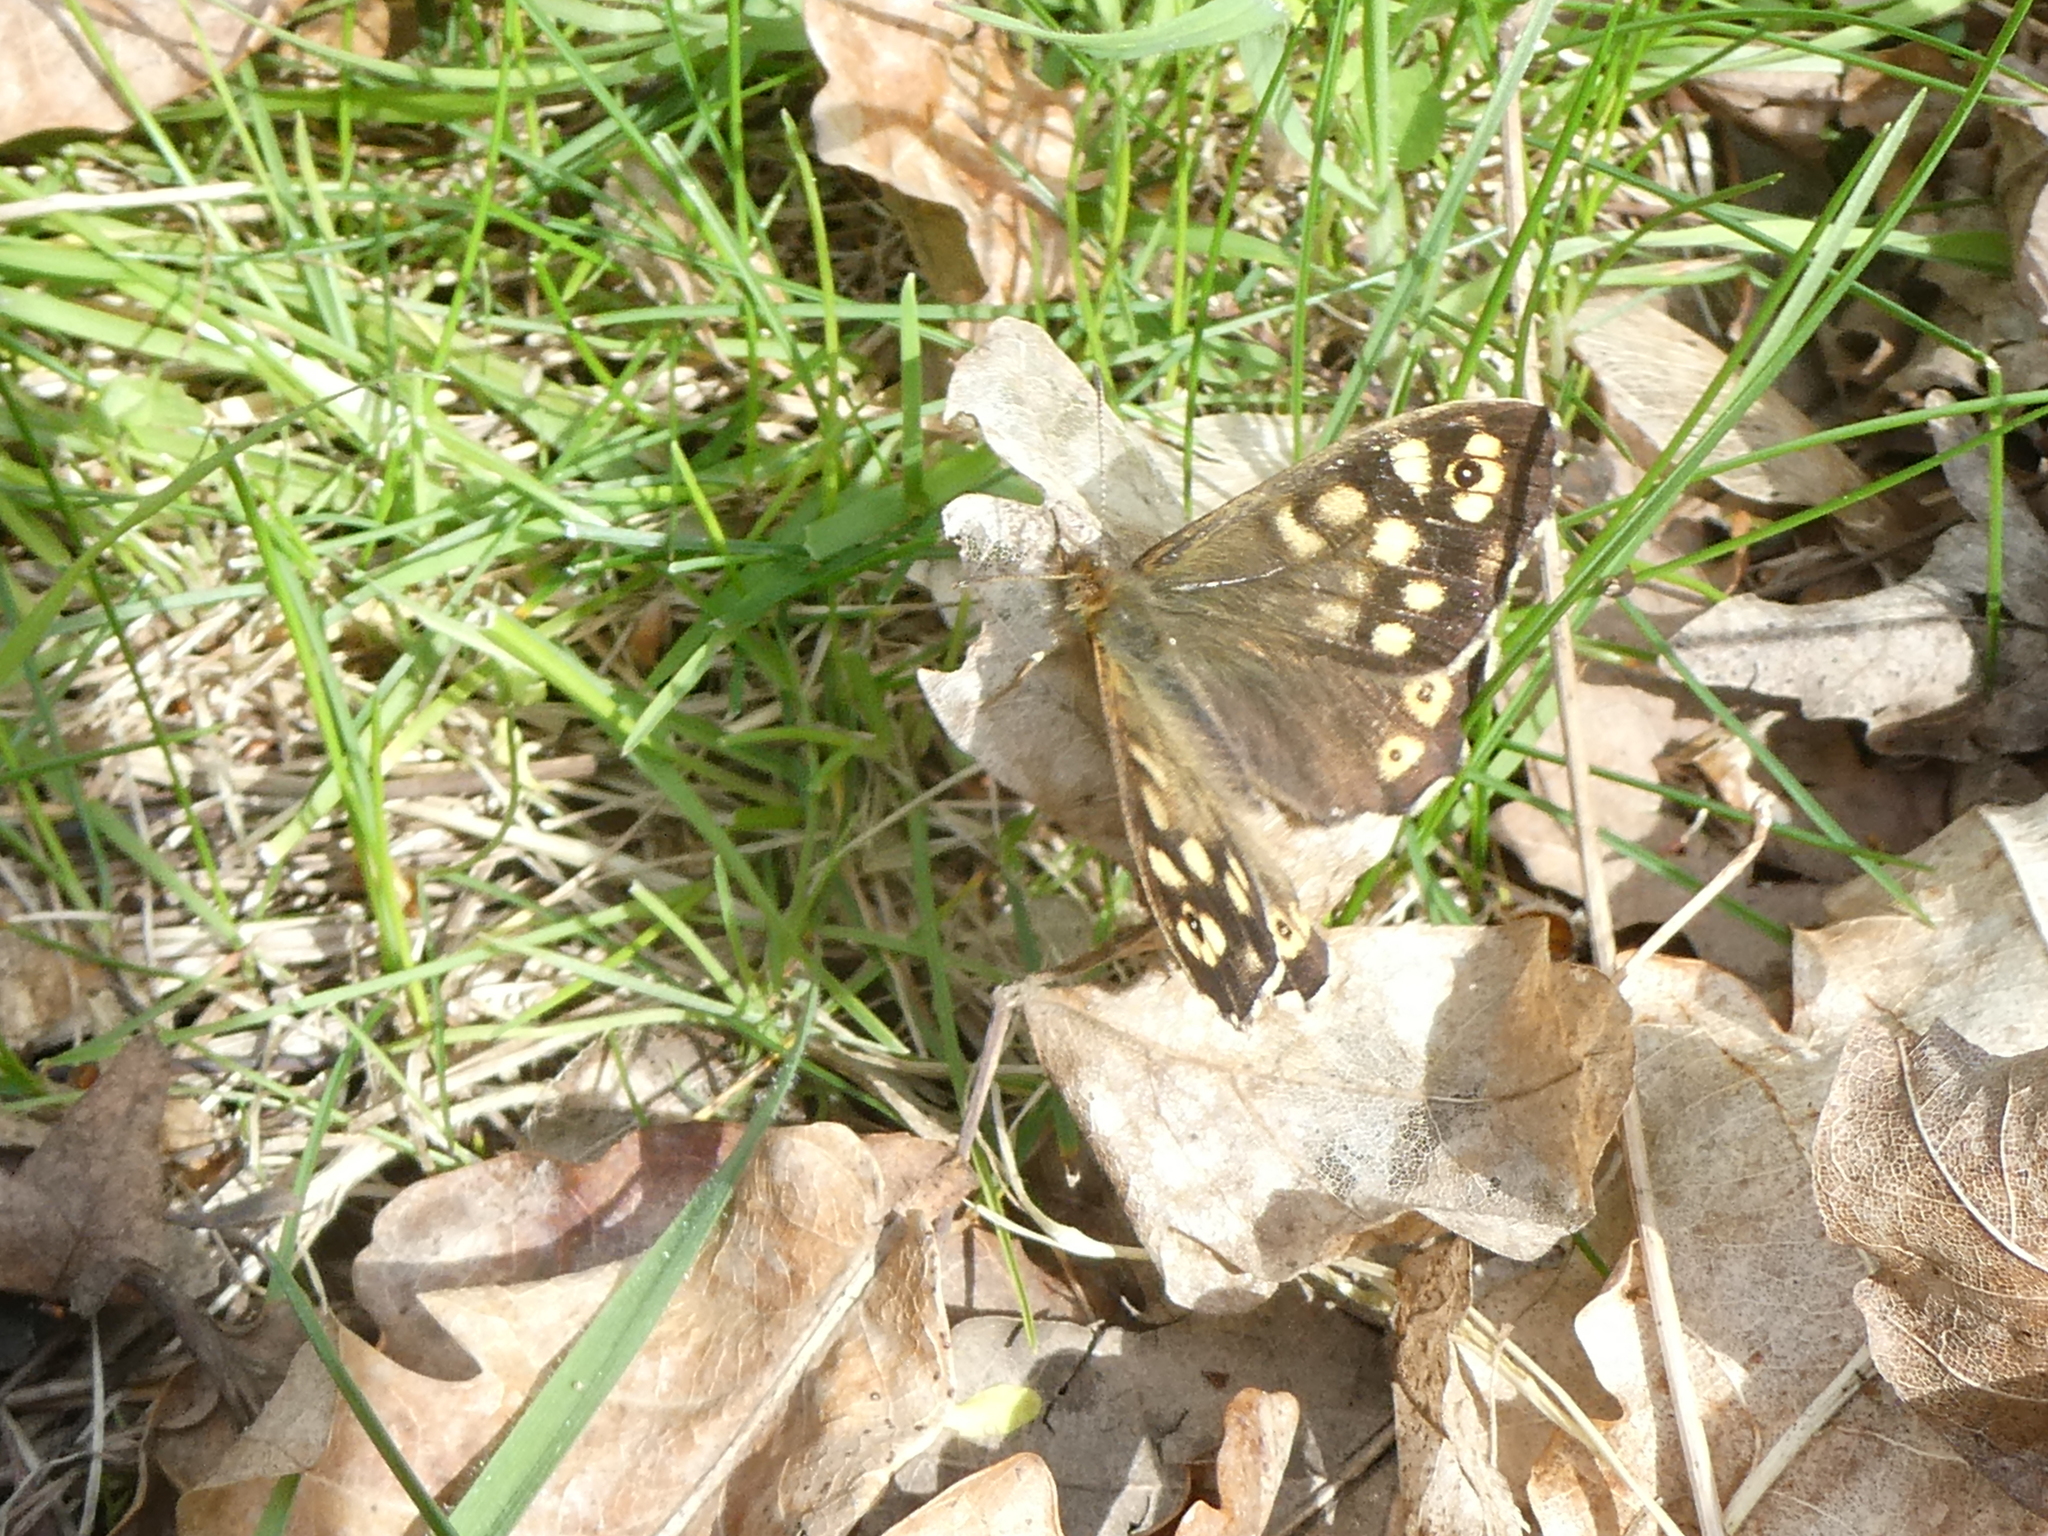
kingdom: Animalia
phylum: Arthropoda
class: Insecta
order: Lepidoptera
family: Nymphalidae
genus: Pararge
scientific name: Pararge aegeria
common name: Speckled wood
